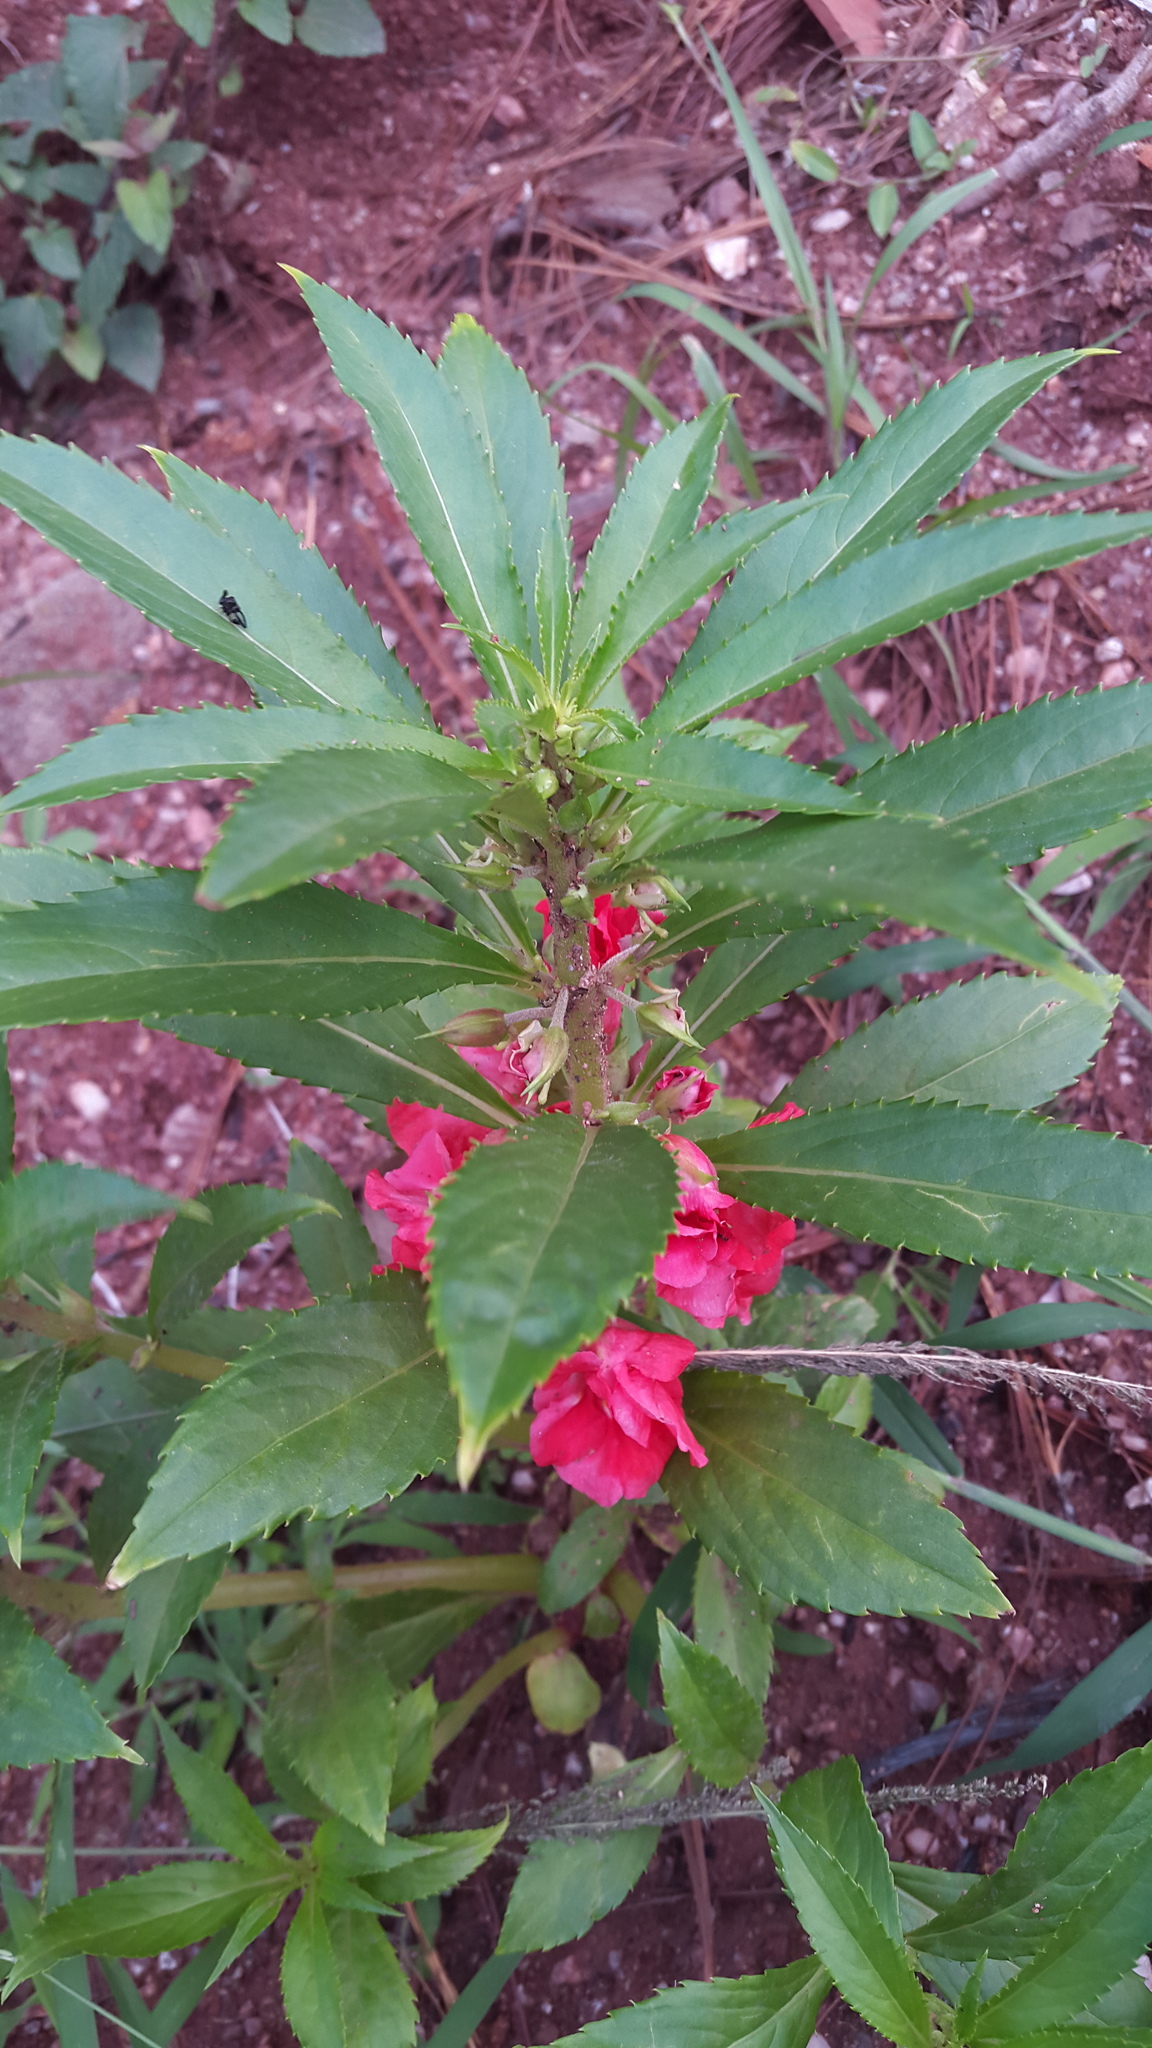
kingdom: Plantae
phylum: Tracheophyta
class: Magnoliopsida
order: Ericales
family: Balsaminaceae
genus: Impatiens
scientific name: Impatiens balsamina
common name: Balsam
